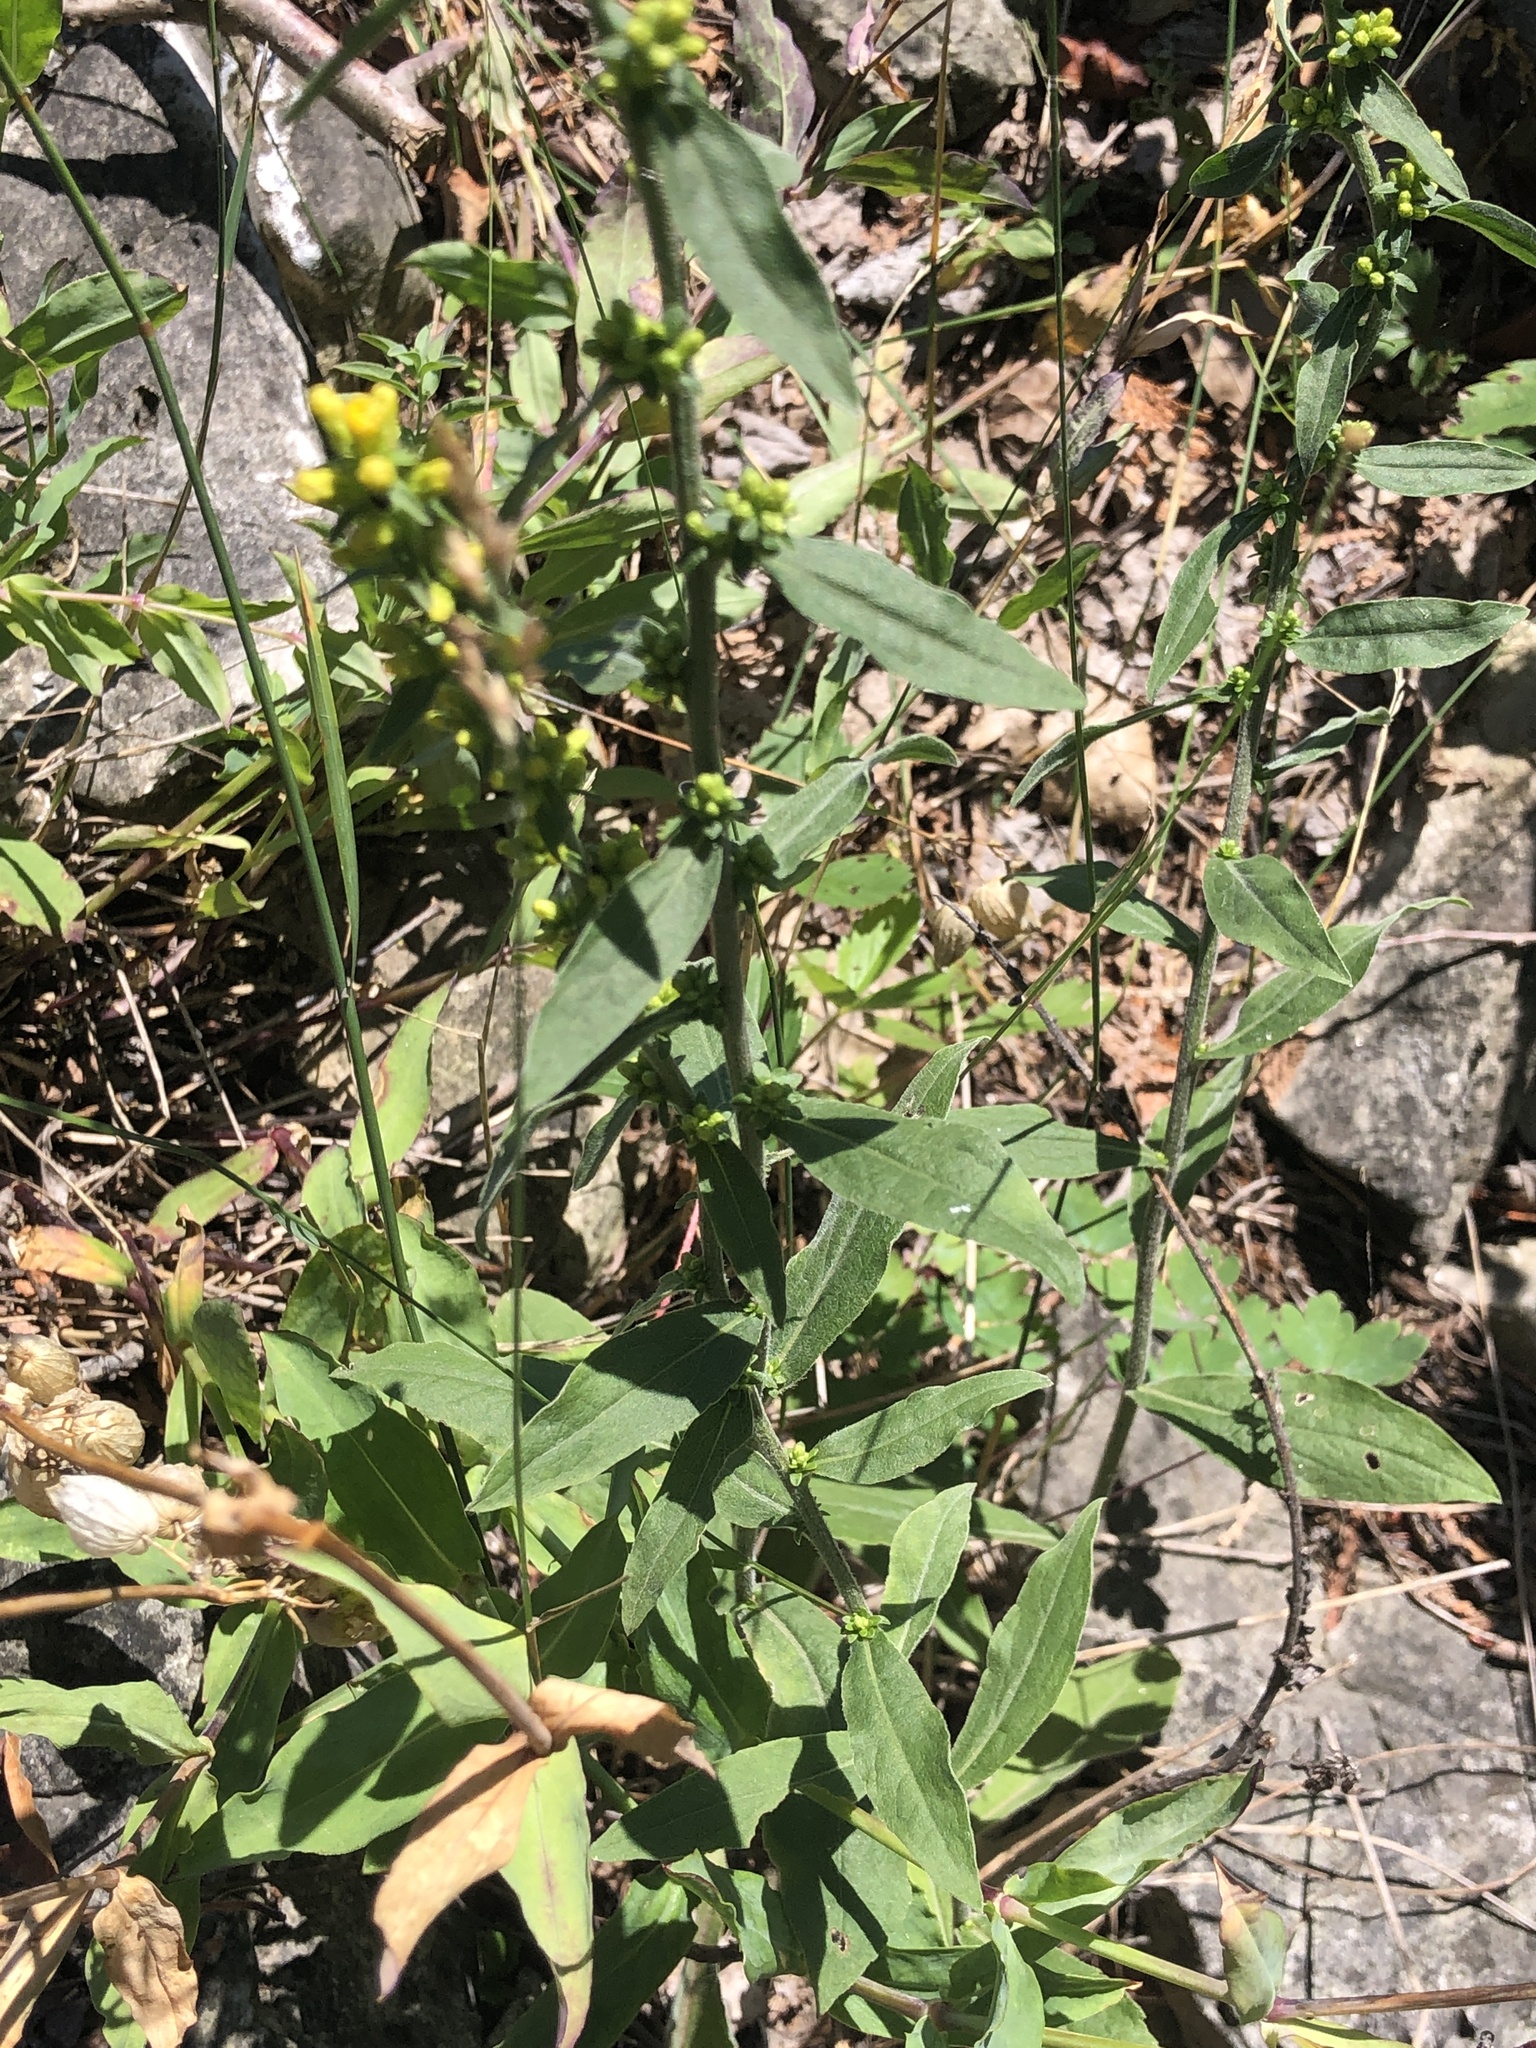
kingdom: Plantae
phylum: Tracheophyta
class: Magnoliopsida
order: Asterales
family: Asteraceae
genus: Solidago
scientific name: Solidago hispida
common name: Hairy goldenrod
